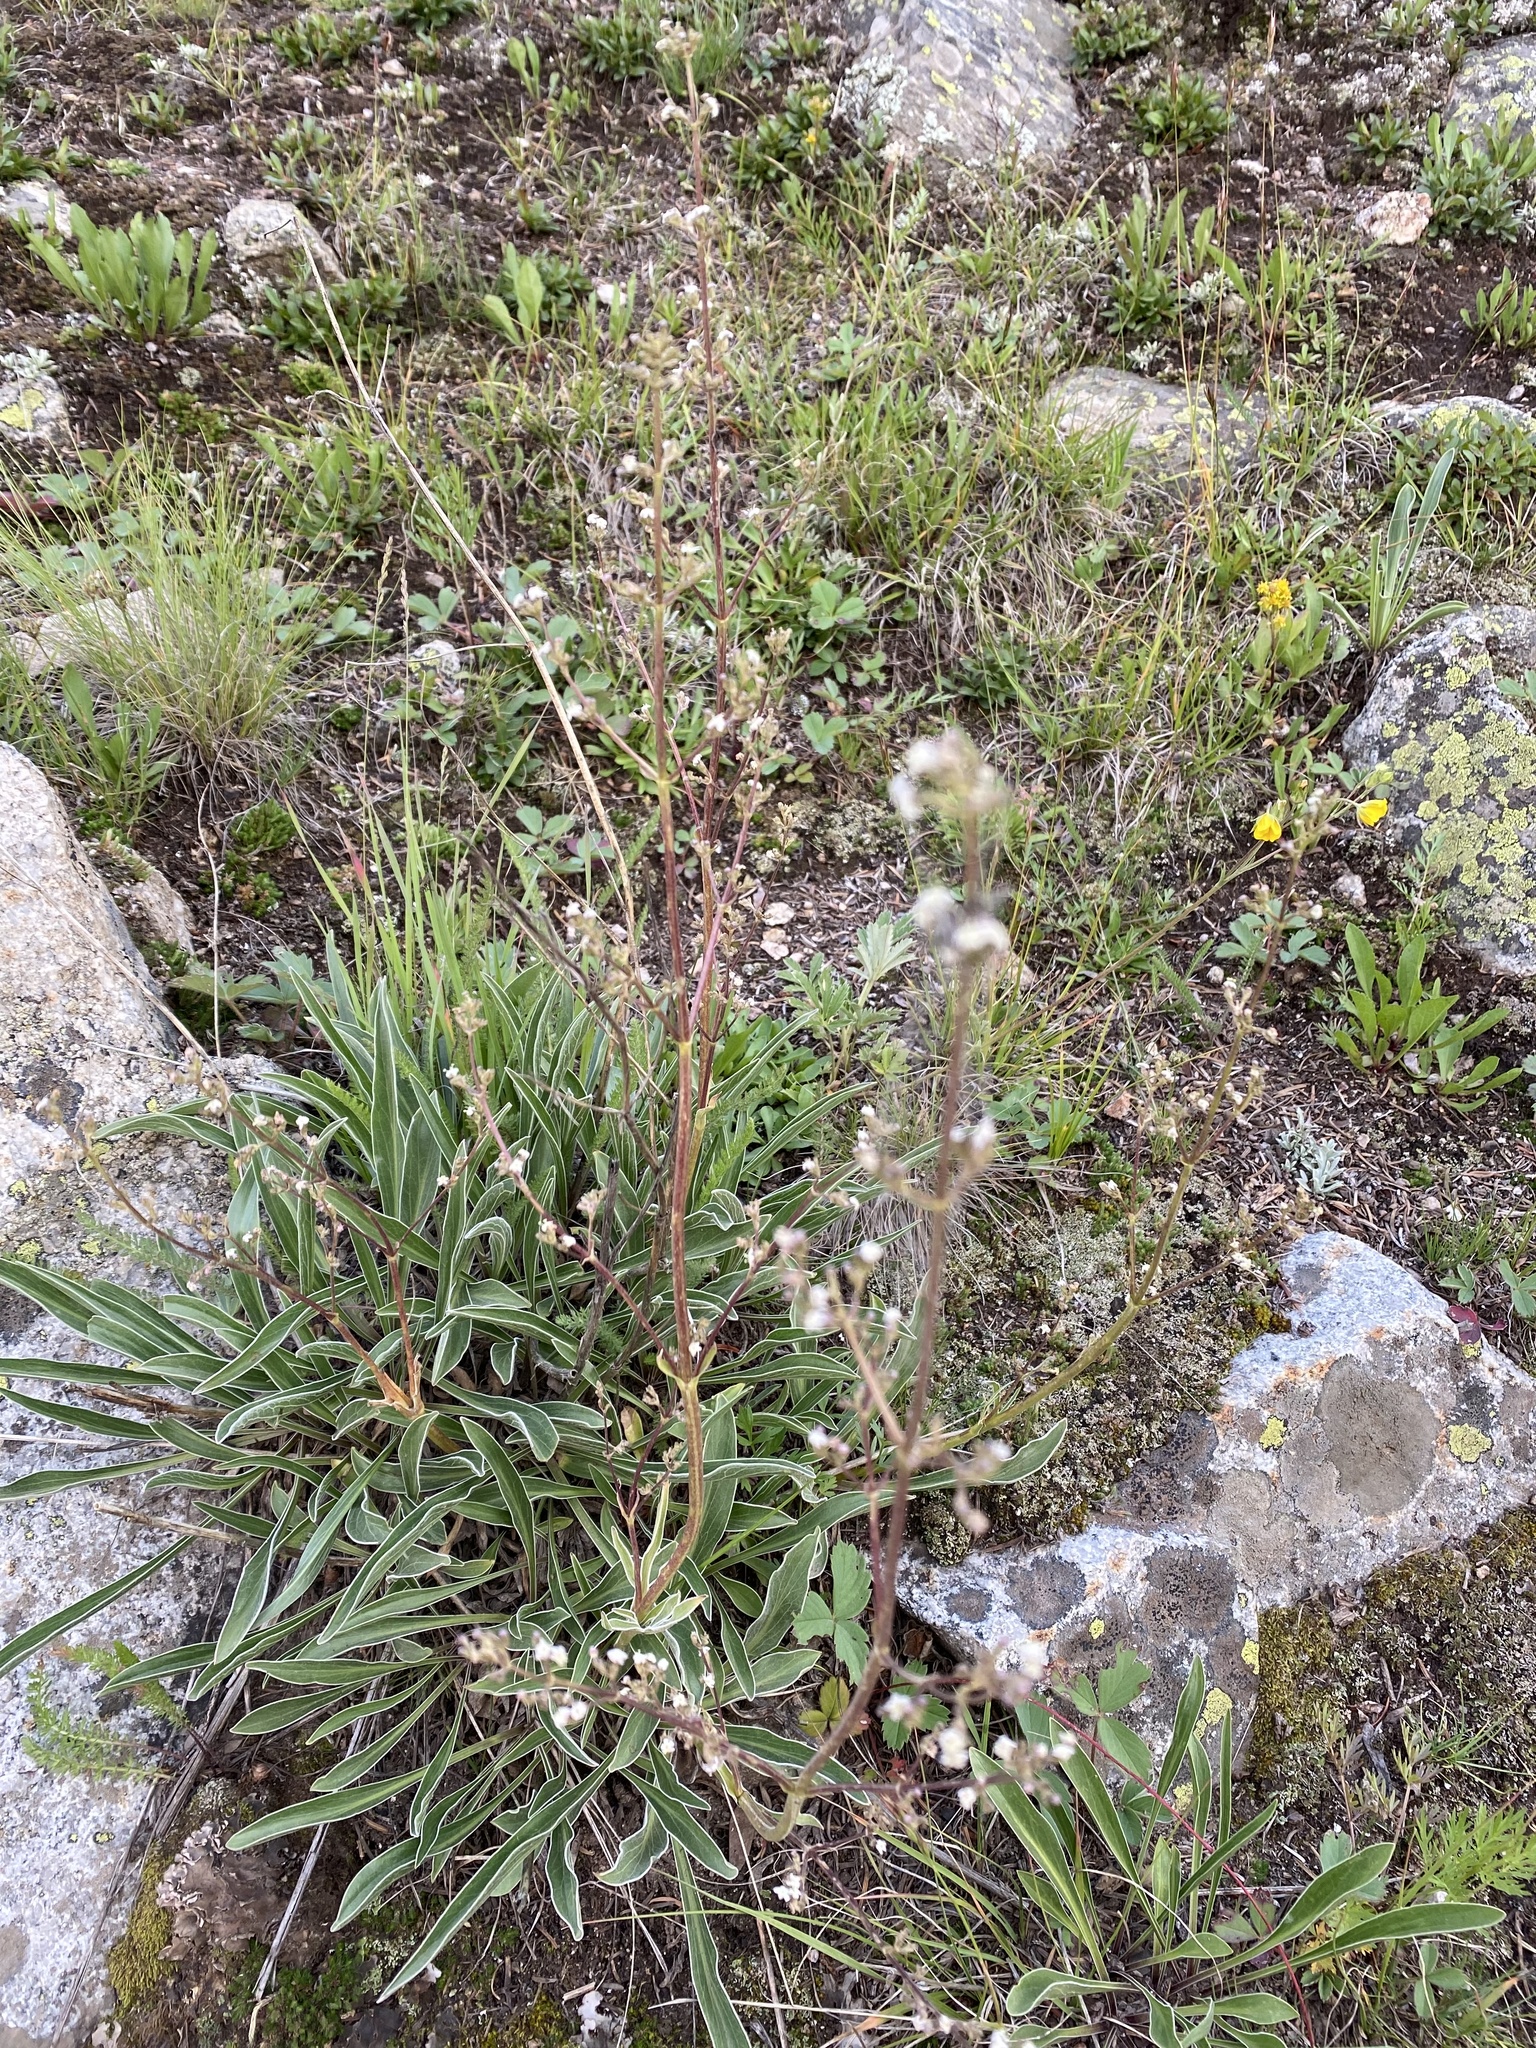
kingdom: Plantae
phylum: Tracheophyta
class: Magnoliopsida
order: Dipsacales
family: Caprifoliaceae
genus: Valeriana
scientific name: Valeriana edulis
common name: Taproot valerian
